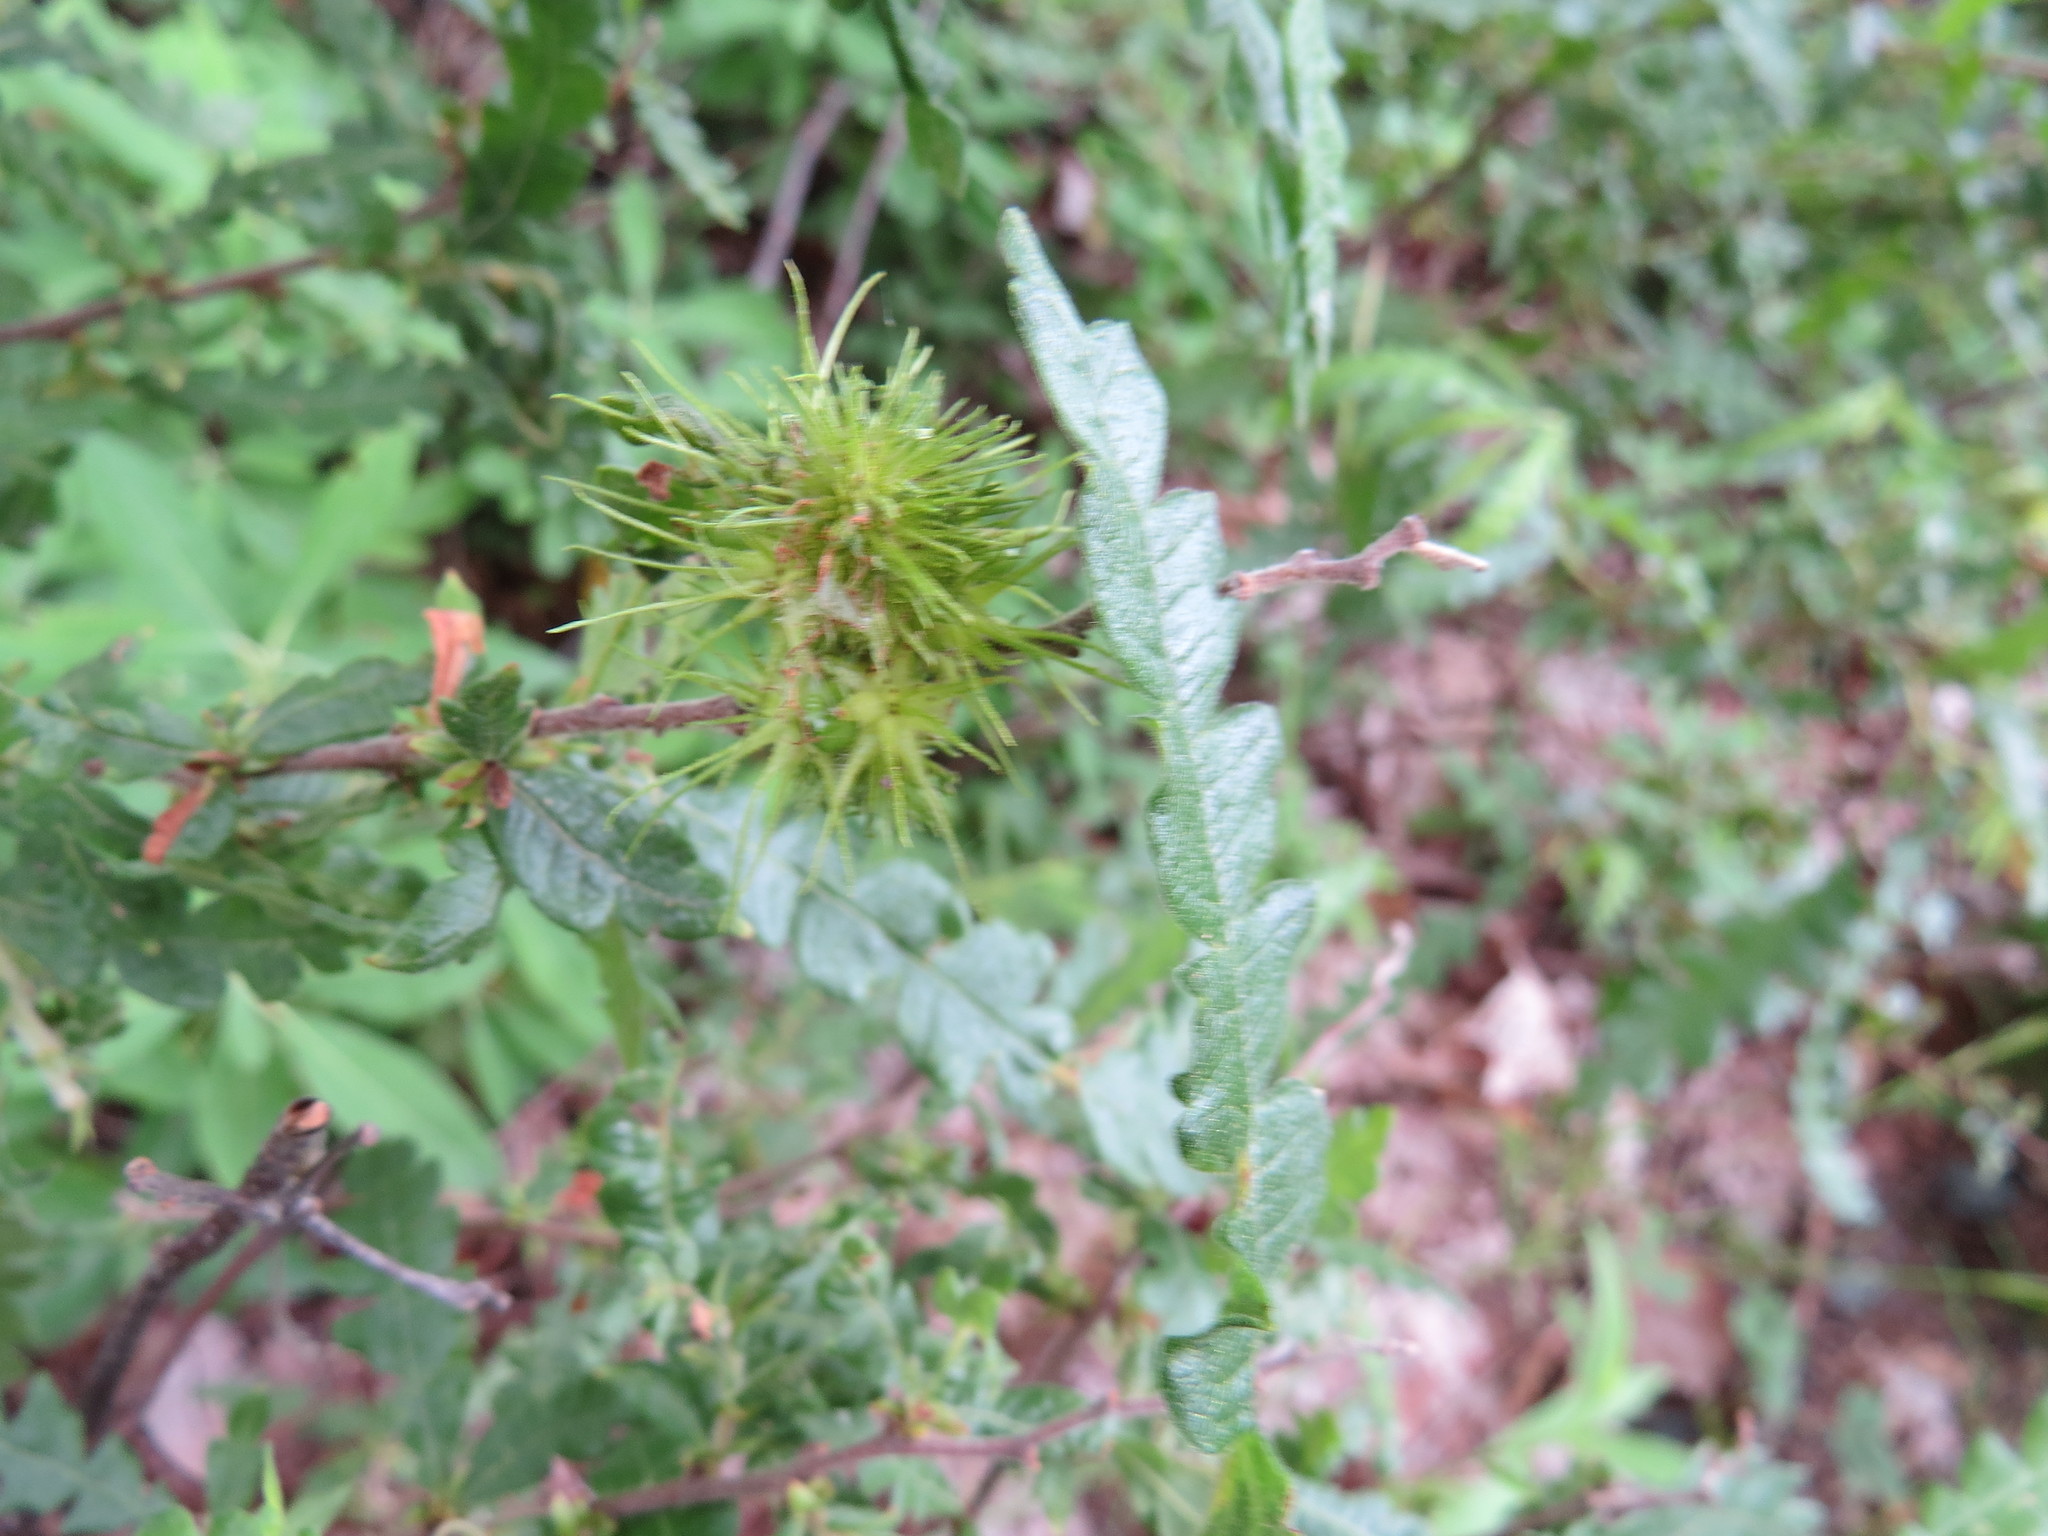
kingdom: Plantae
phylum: Tracheophyta
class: Magnoliopsida
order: Fagales
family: Myricaceae
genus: Comptonia
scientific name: Comptonia peregrina
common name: Sweet-fern
